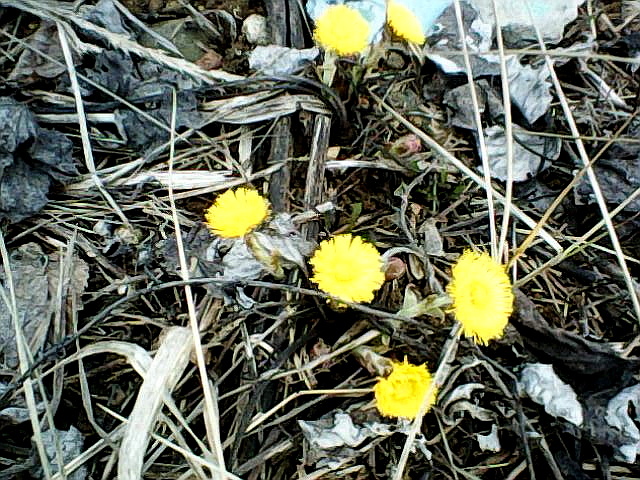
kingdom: Plantae
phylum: Tracheophyta
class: Magnoliopsida
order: Asterales
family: Asteraceae
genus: Tussilago
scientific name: Tussilago farfara
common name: Coltsfoot
